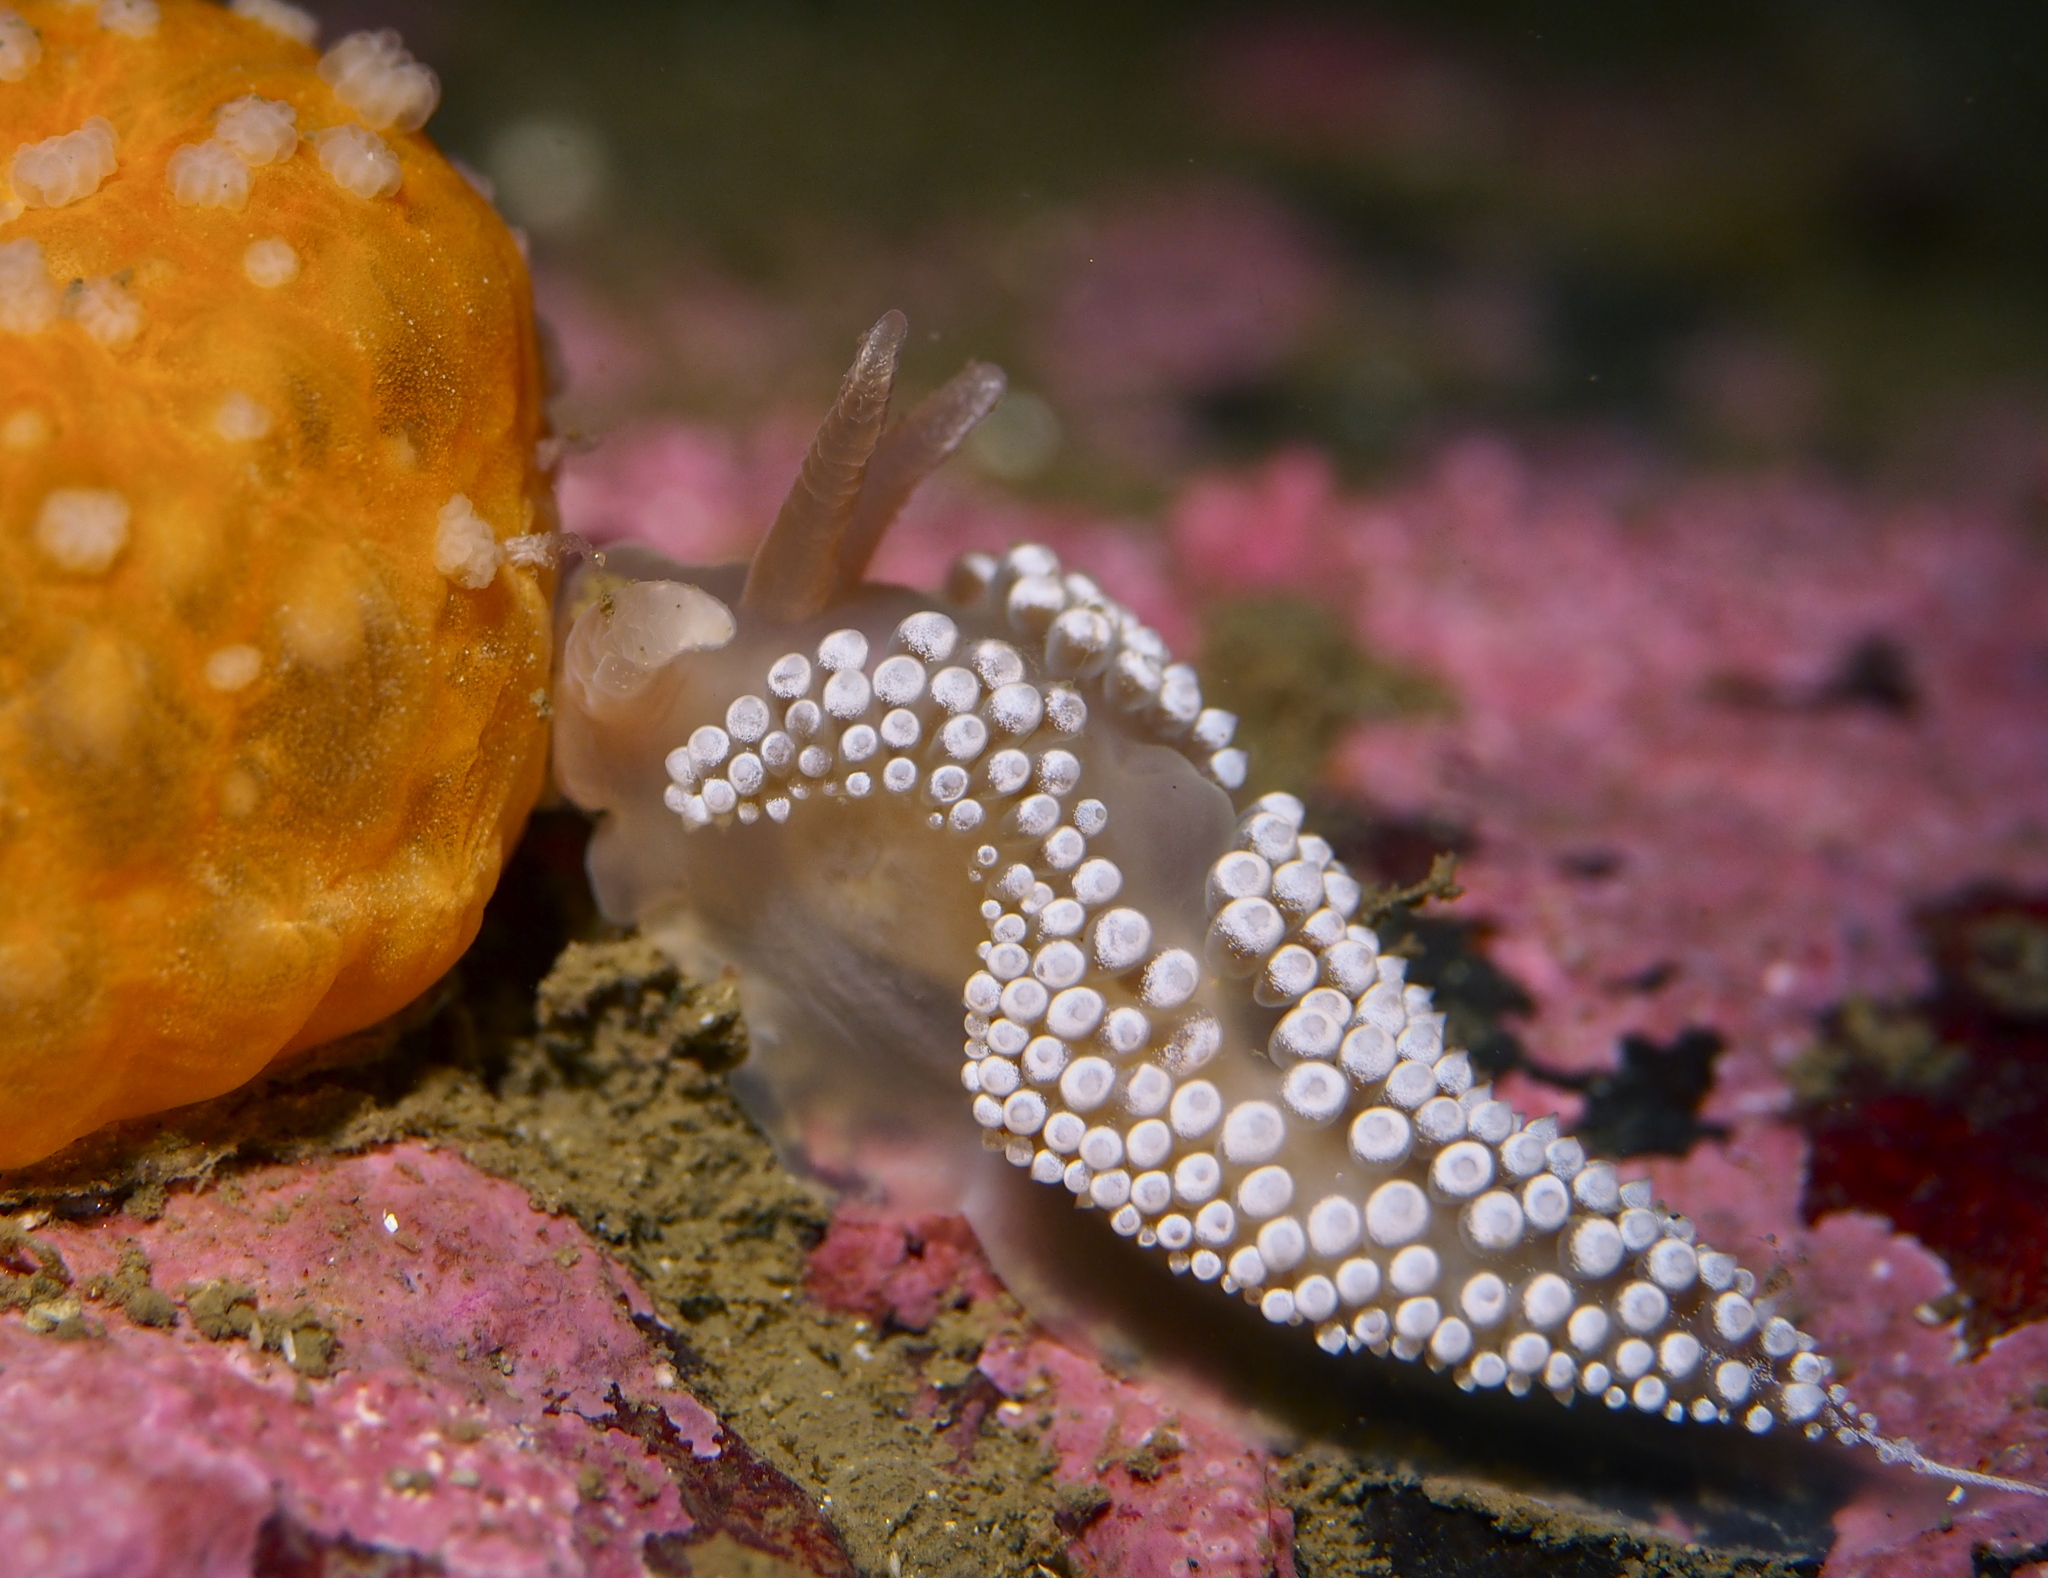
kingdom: Animalia
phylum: Mollusca
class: Gastropoda
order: Nudibranchia
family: Coryphellidae
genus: Coryphella
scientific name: Coryphella verrucosa
